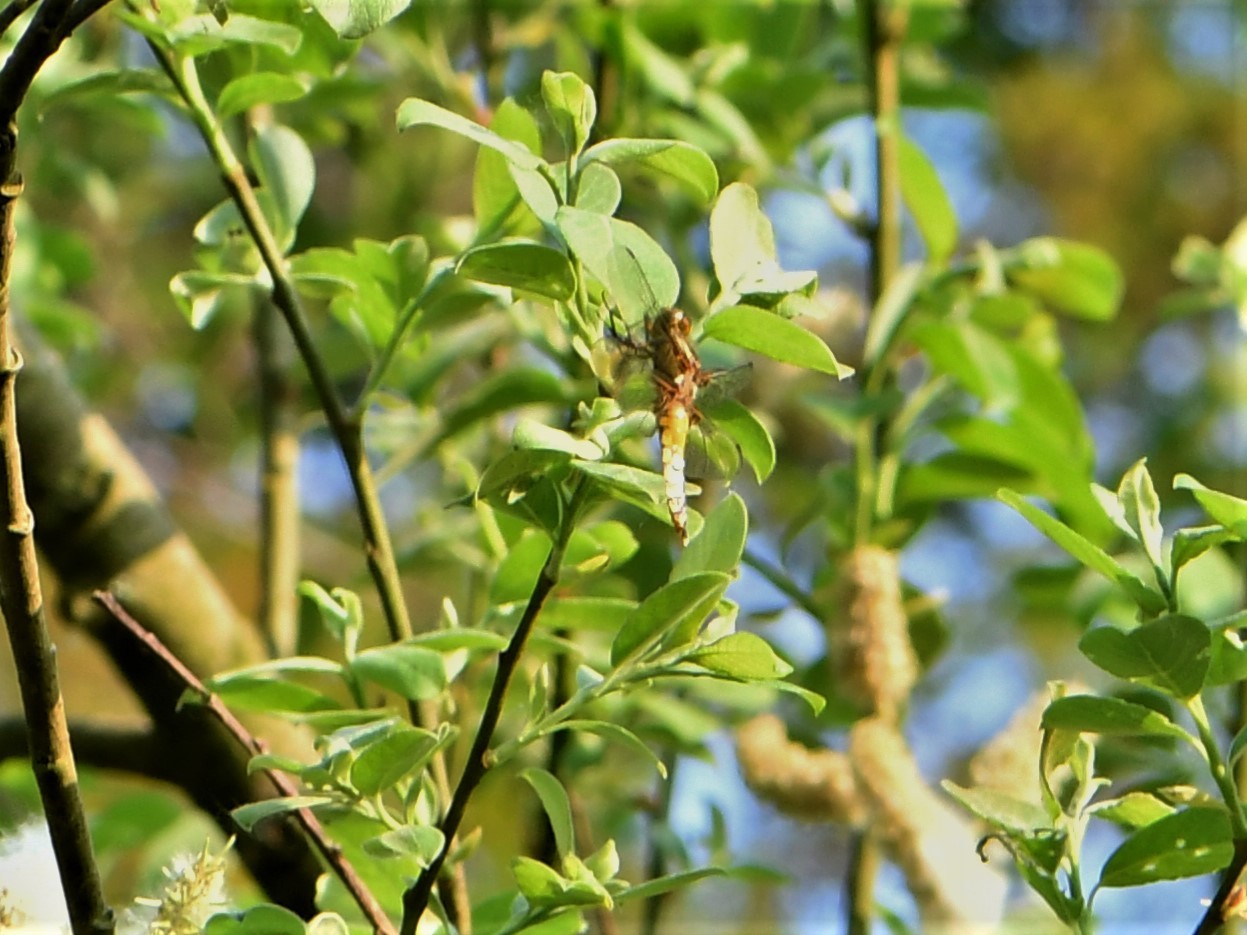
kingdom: Animalia
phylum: Arthropoda
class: Insecta
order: Odonata
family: Libellulidae
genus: Libellula
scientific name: Libellula depressa
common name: Broad-bodied chaser
